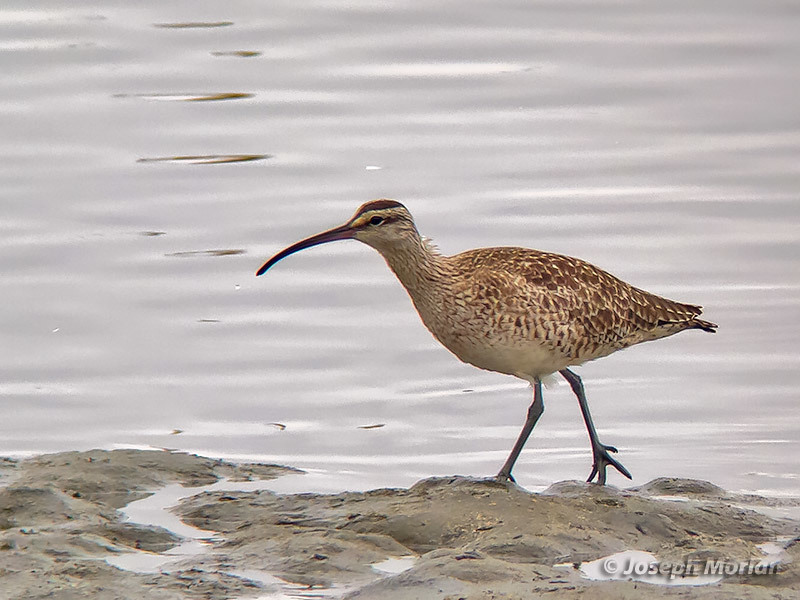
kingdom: Animalia
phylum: Chordata
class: Aves
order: Charadriiformes
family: Scolopacidae
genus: Numenius
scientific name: Numenius phaeopus
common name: Whimbrel
